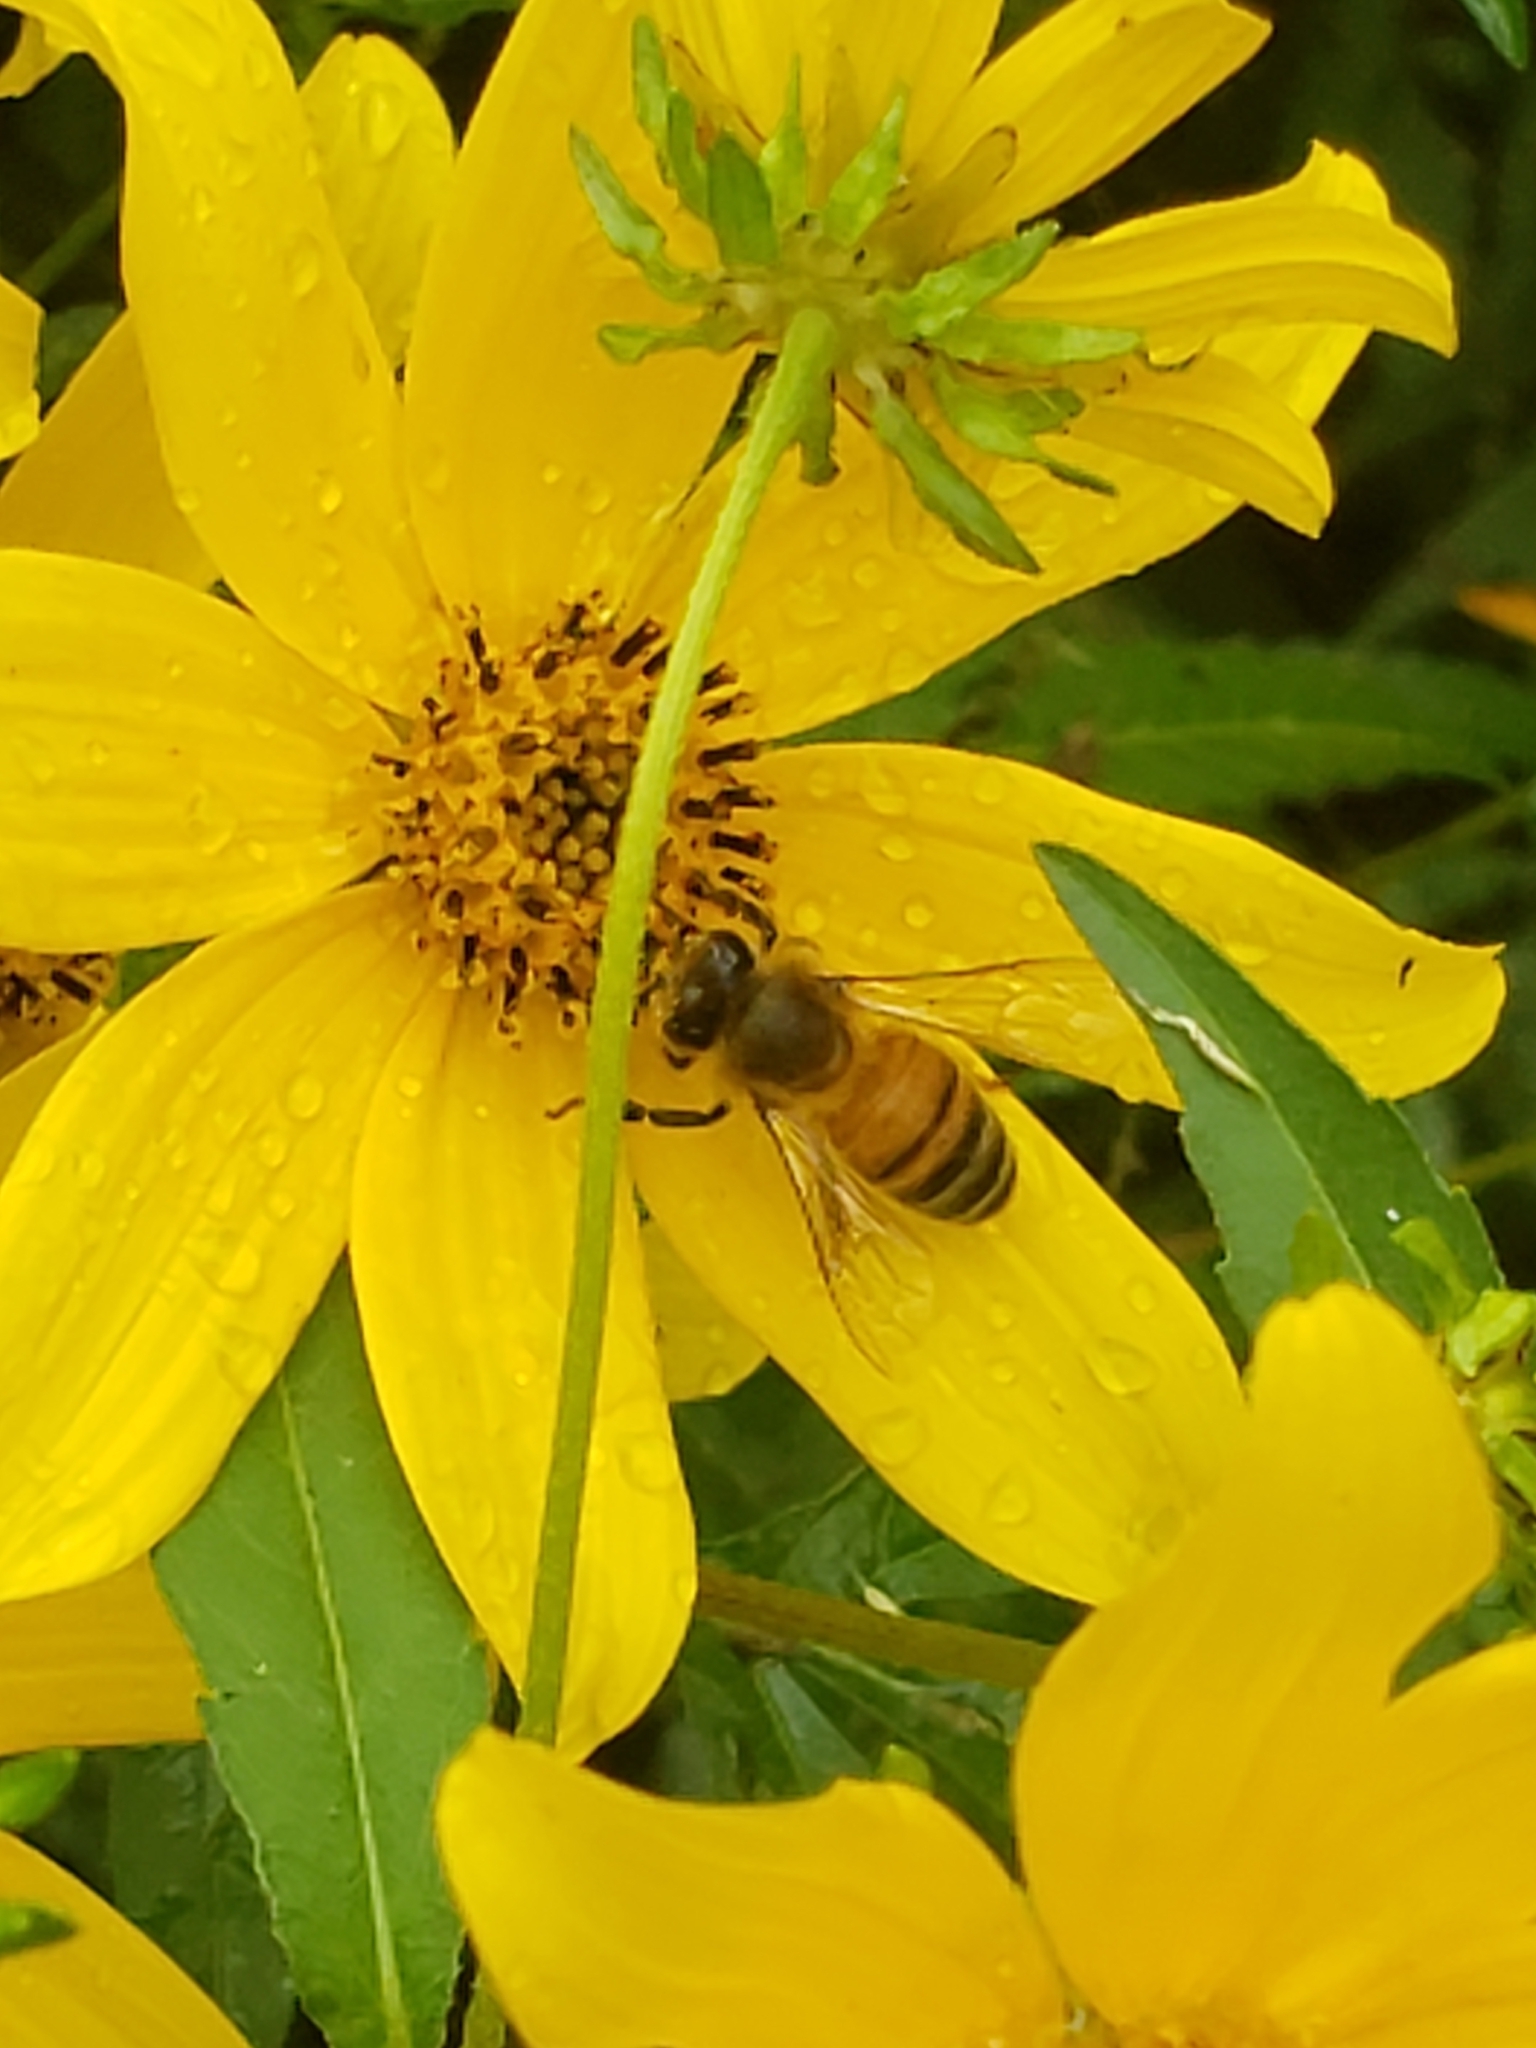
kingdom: Animalia
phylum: Arthropoda
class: Insecta
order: Hymenoptera
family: Apidae
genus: Apis
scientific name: Apis mellifera
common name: Honey bee
